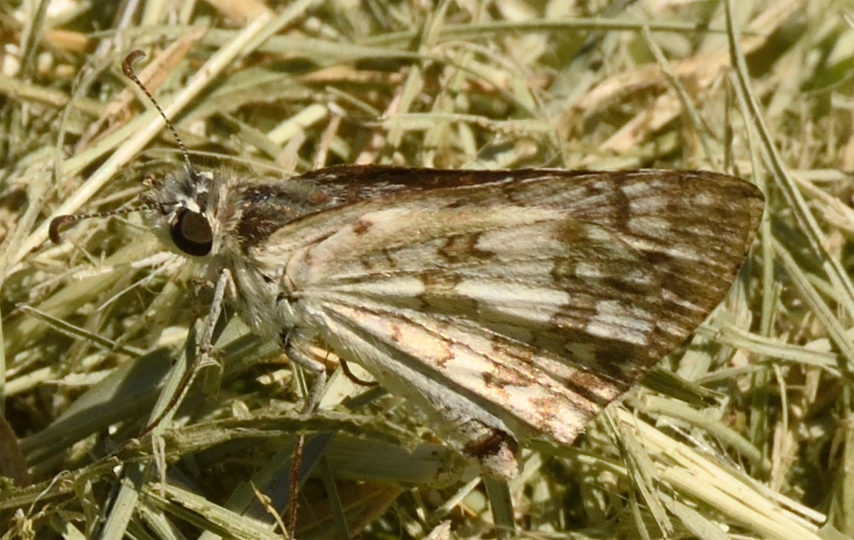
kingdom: Animalia
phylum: Arthropoda
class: Insecta
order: Lepidoptera
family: Hesperiidae
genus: Burnsius
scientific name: Burnsius albezens
